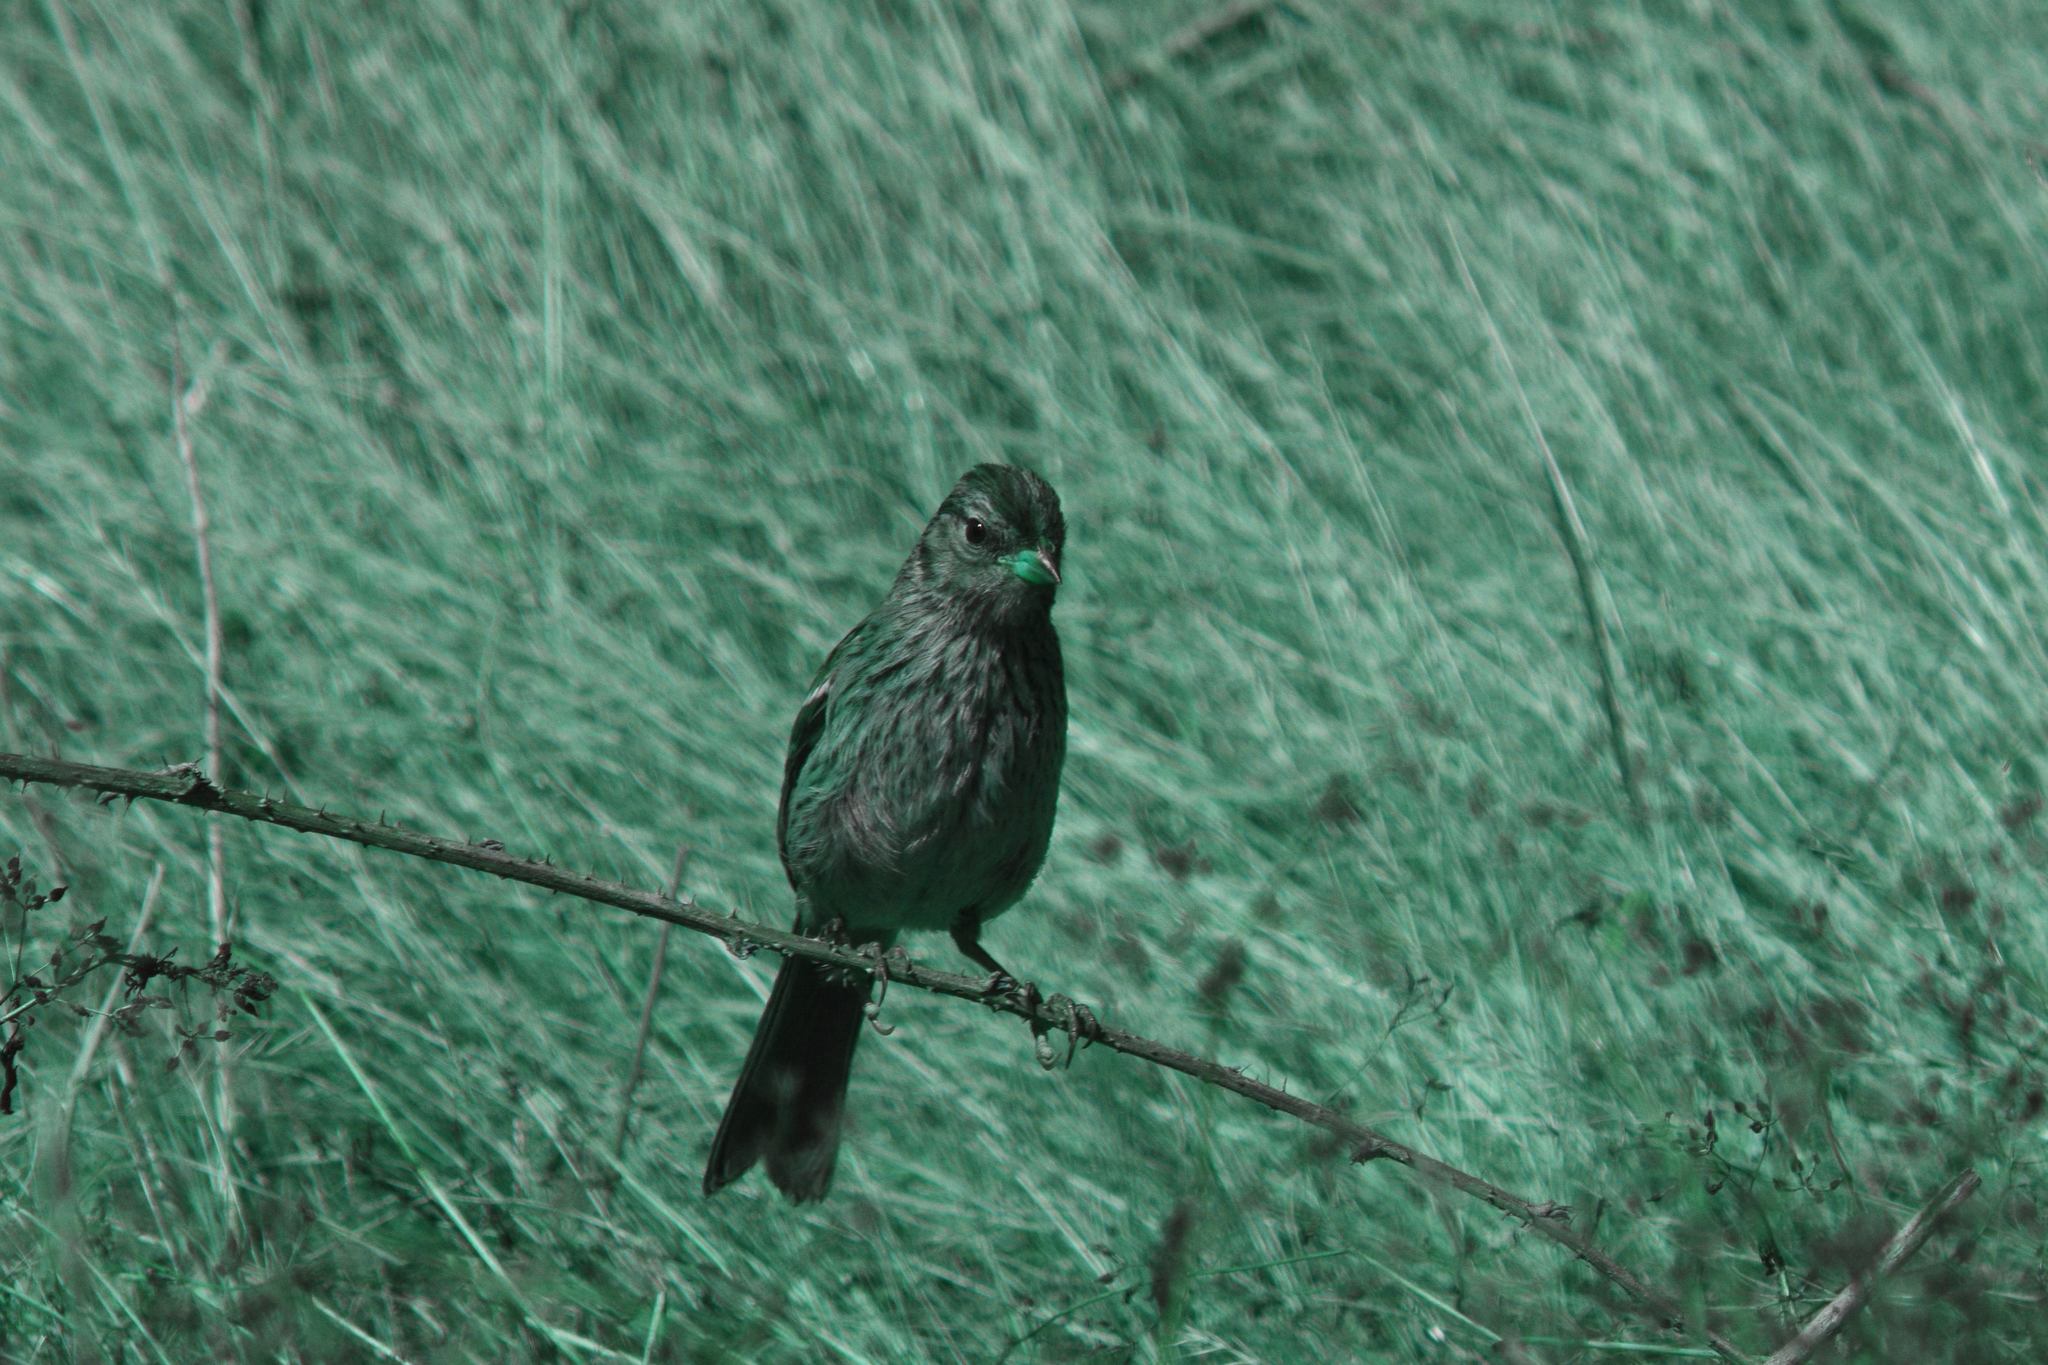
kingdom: Animalia
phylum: Chordata
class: Aves
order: Passeriformes
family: Passerellidae
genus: Zonotrichia
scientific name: Zonotrichia leucophrys
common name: White-crowned sparrow
